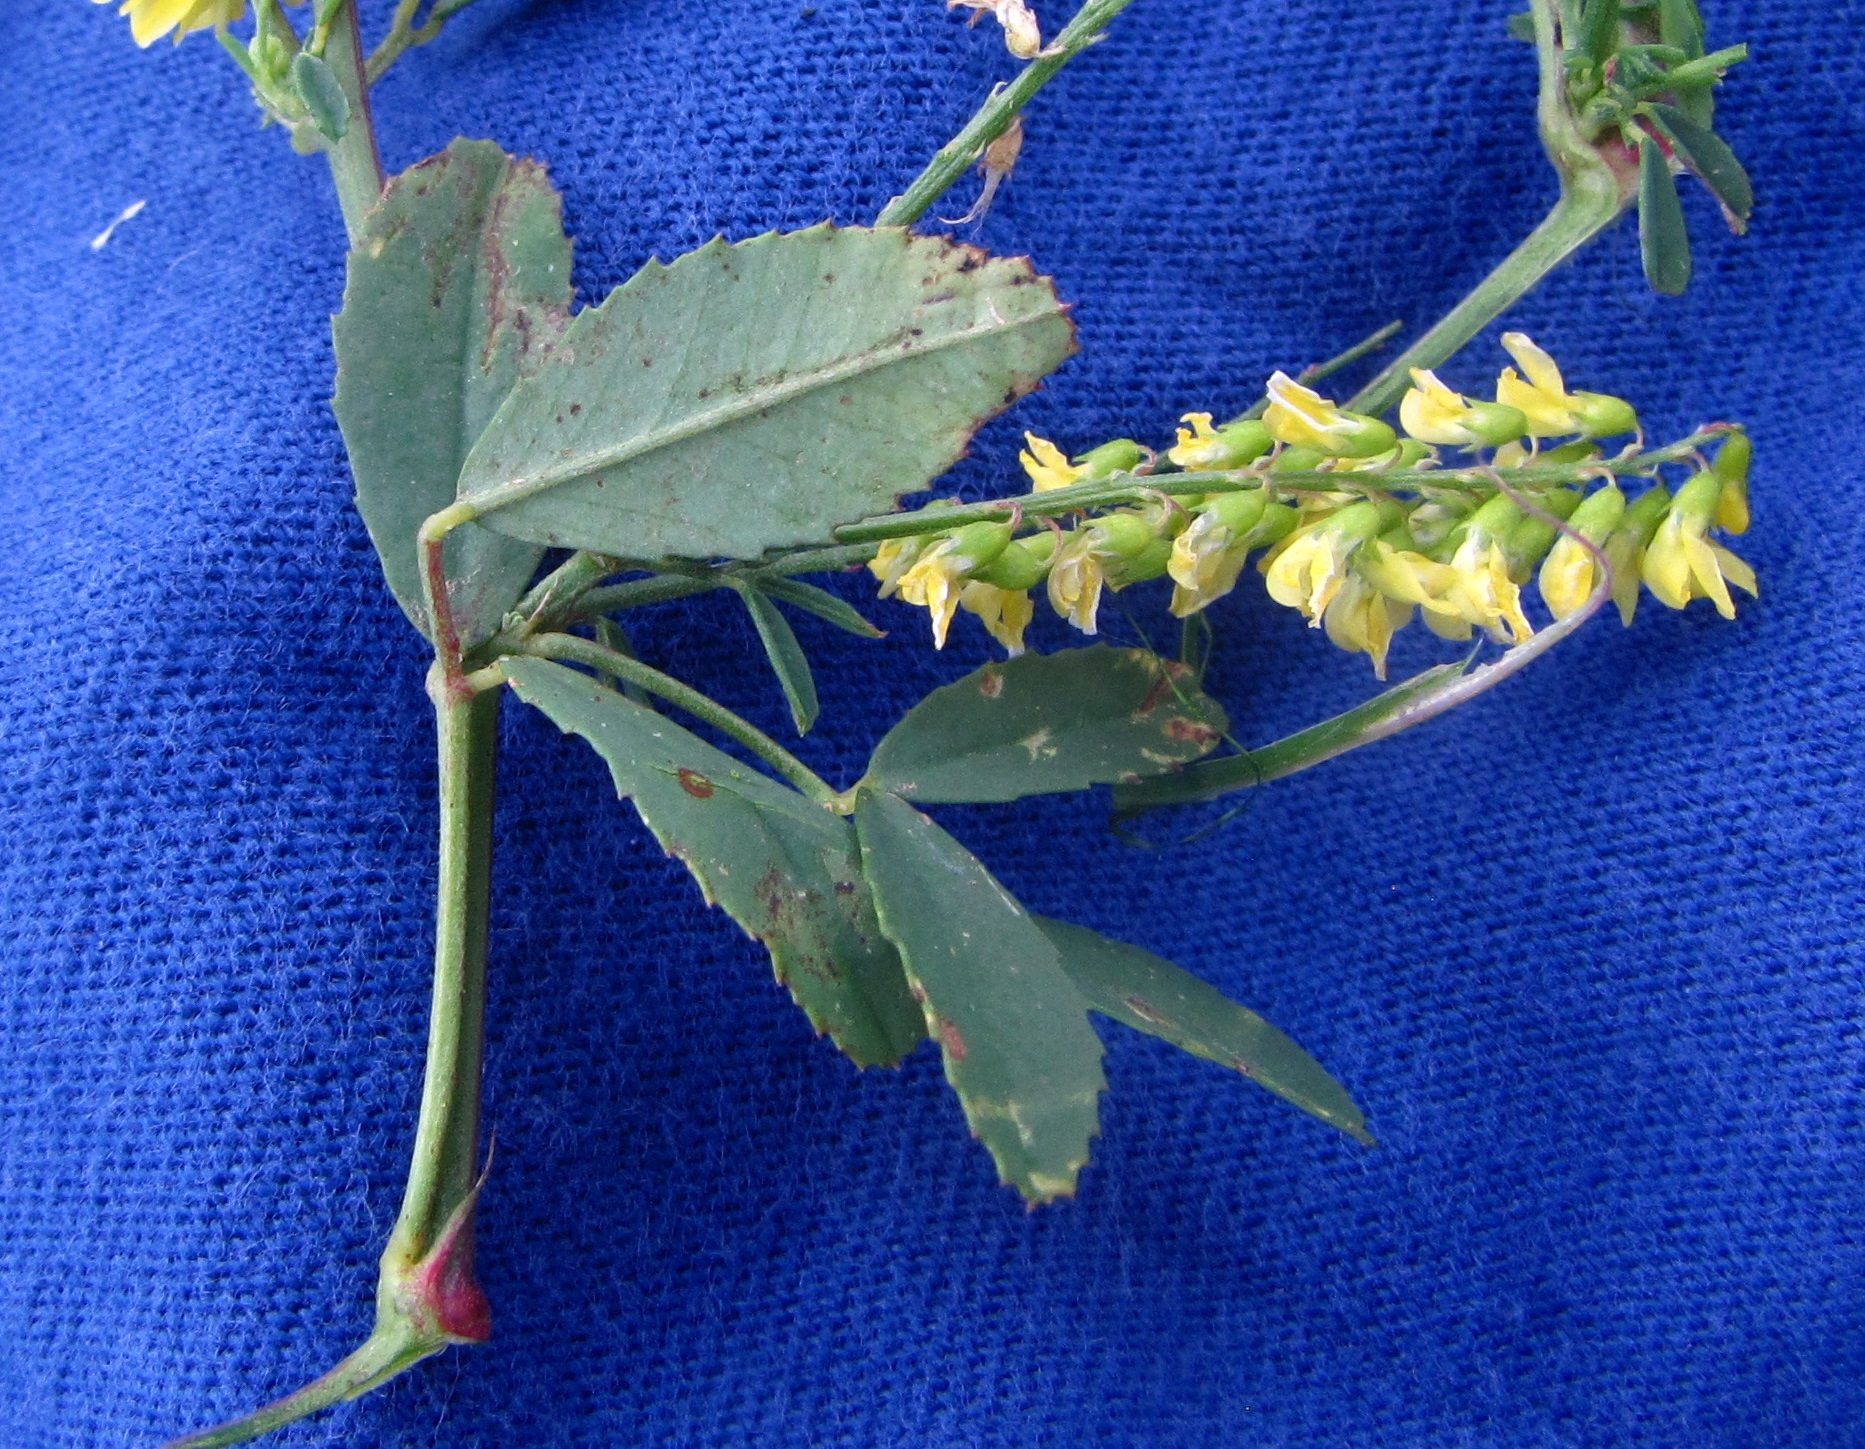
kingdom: Plantae
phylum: Tracheophyta
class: Magnoliopsida
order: Fabales
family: Fabaceae
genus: Melilotus
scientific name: Melilotus officinalis
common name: Sweetclover
